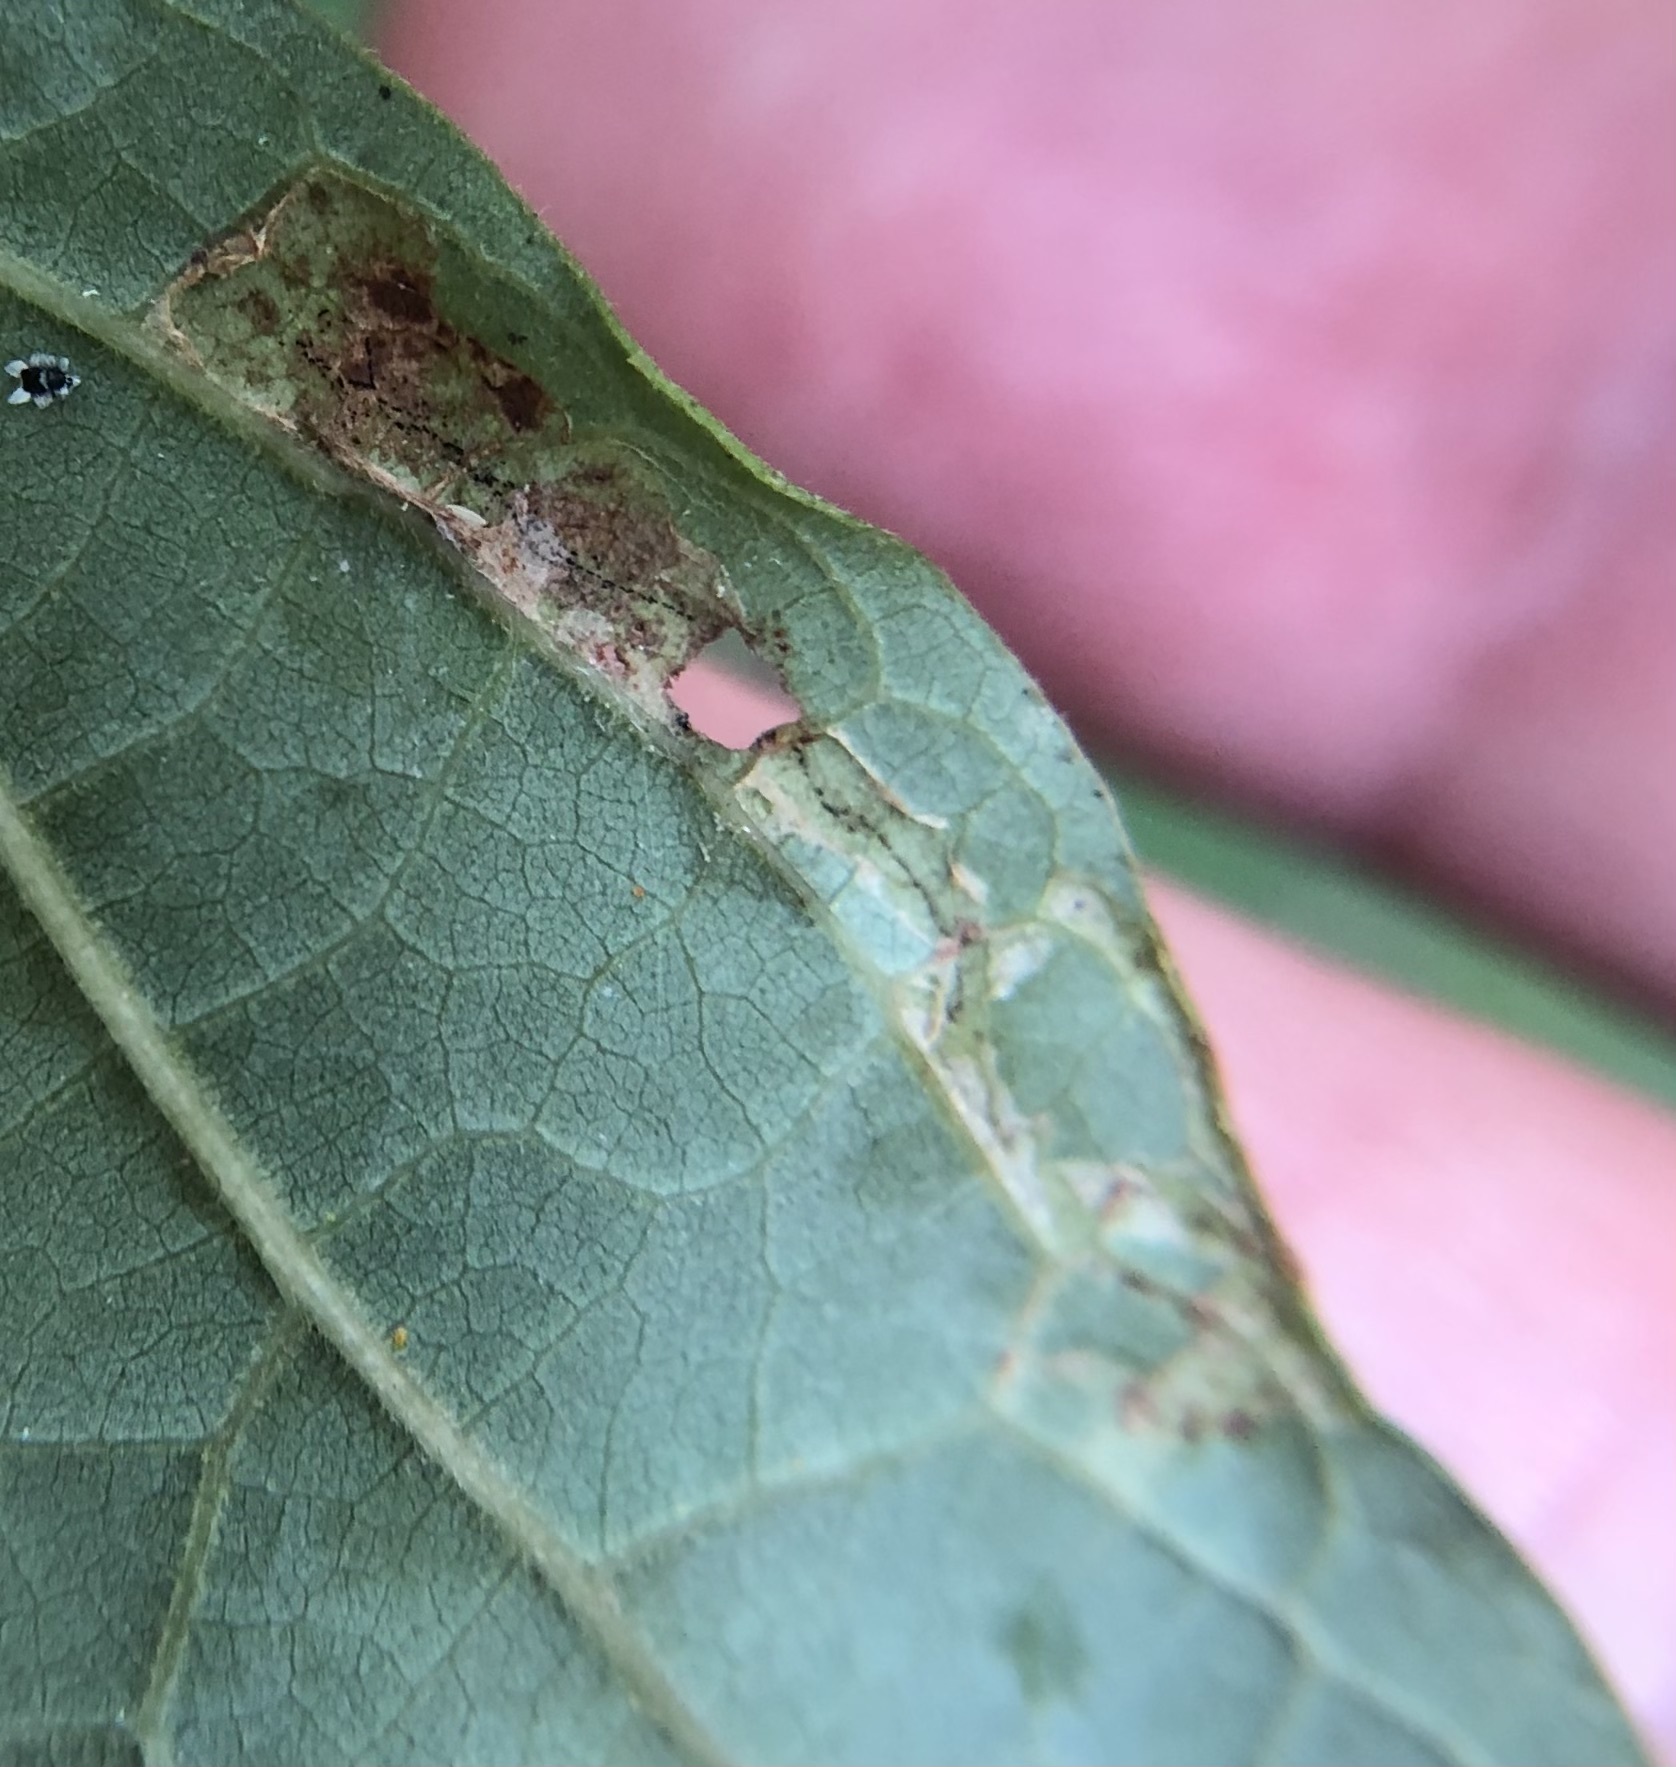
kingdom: Animalia
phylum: Arthropoda
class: Insecta
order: Lepidoptera
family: Gracillariidae
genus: Caloptilia
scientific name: Caloptilia sassafrasella
